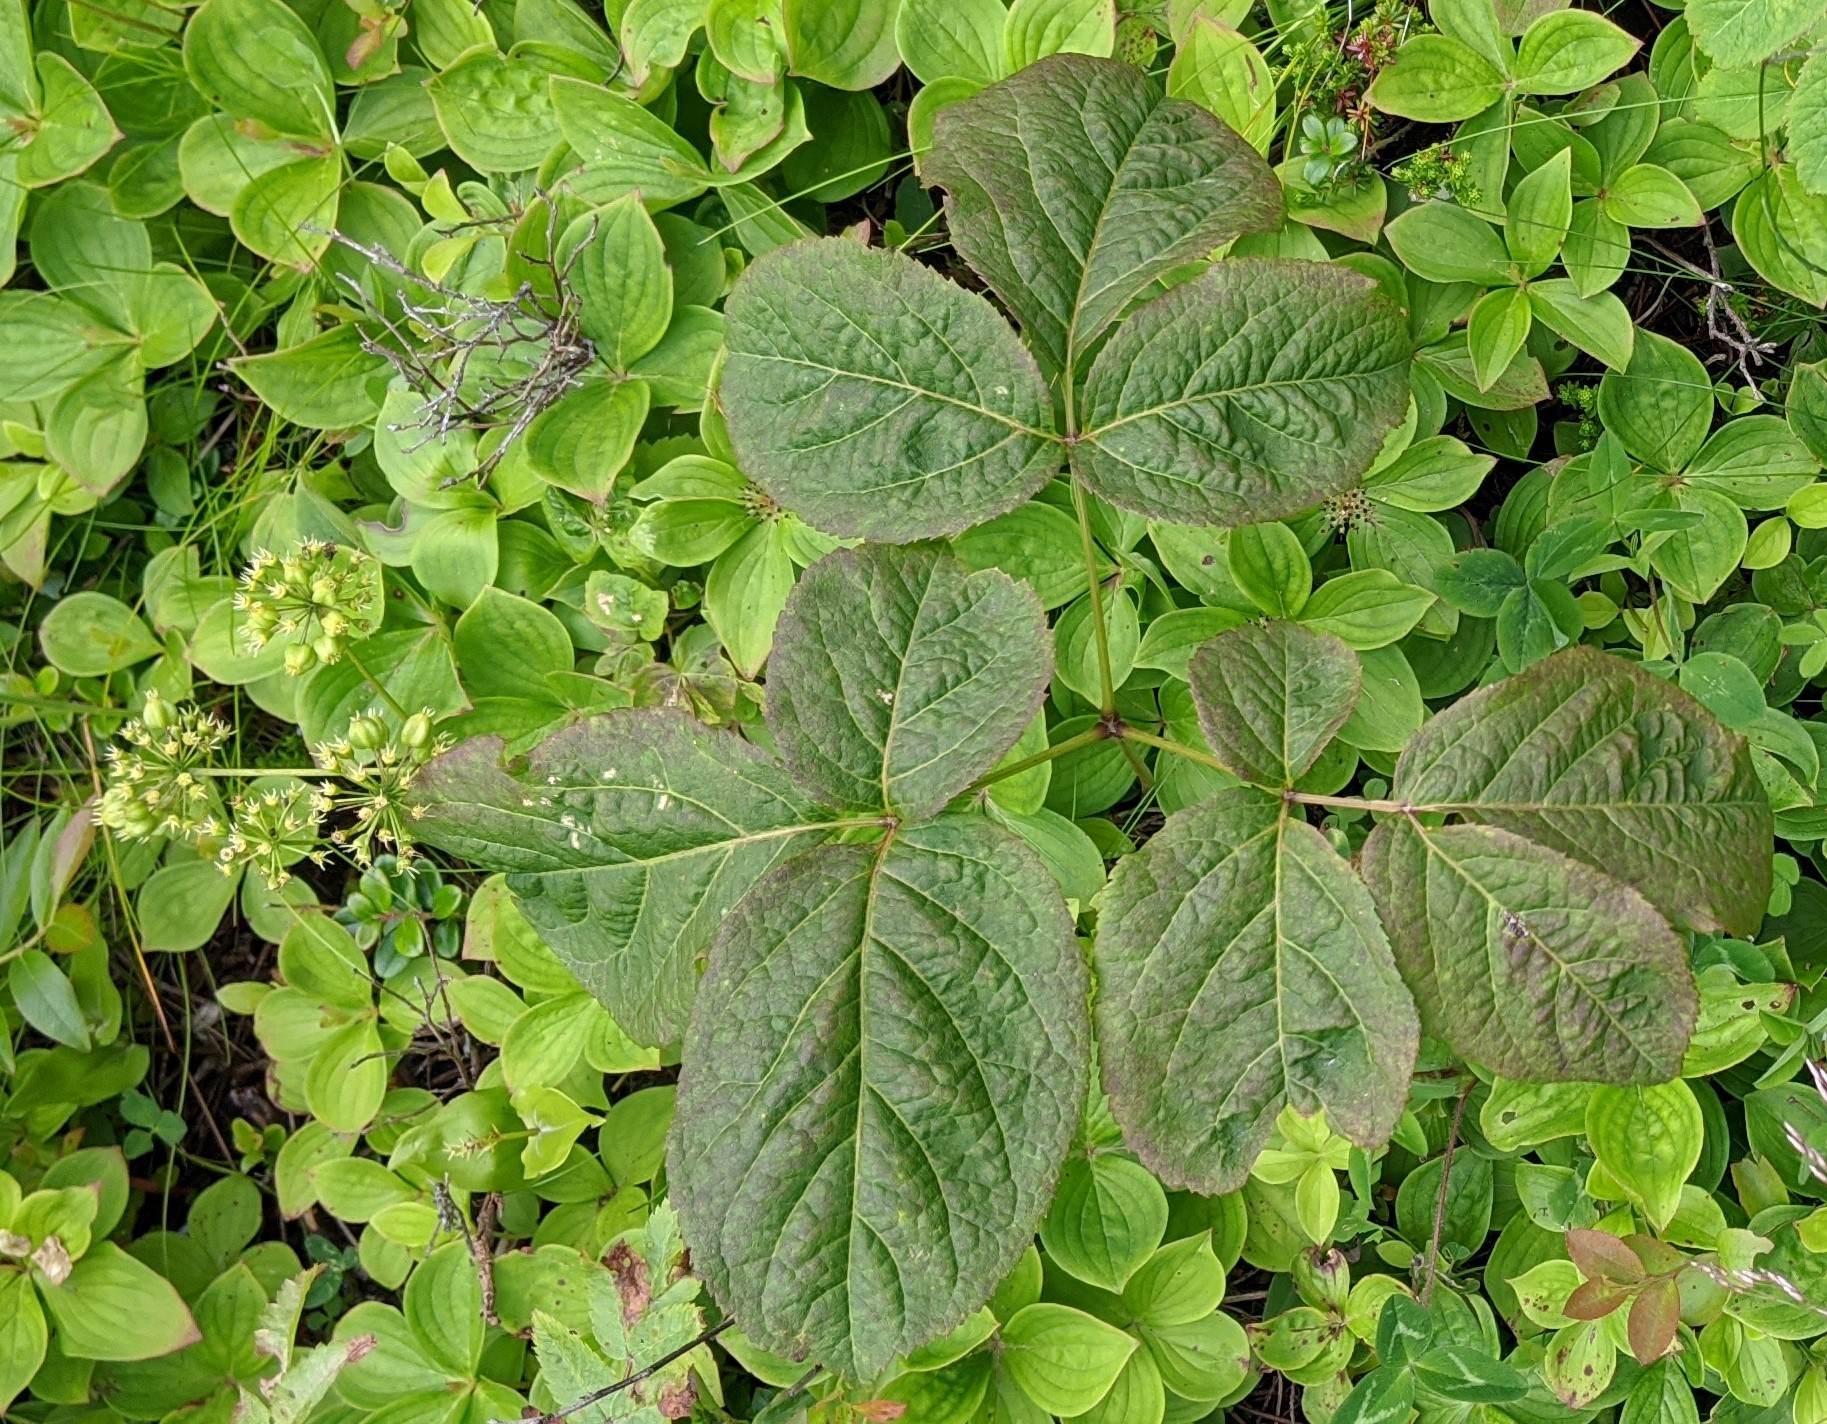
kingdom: Plantae
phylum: Tracheophyta
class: Magnoliopsida
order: Apiales
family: Araliaceae
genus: Aralia
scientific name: Aralia nudicaulis
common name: Wild sarsaparilla
